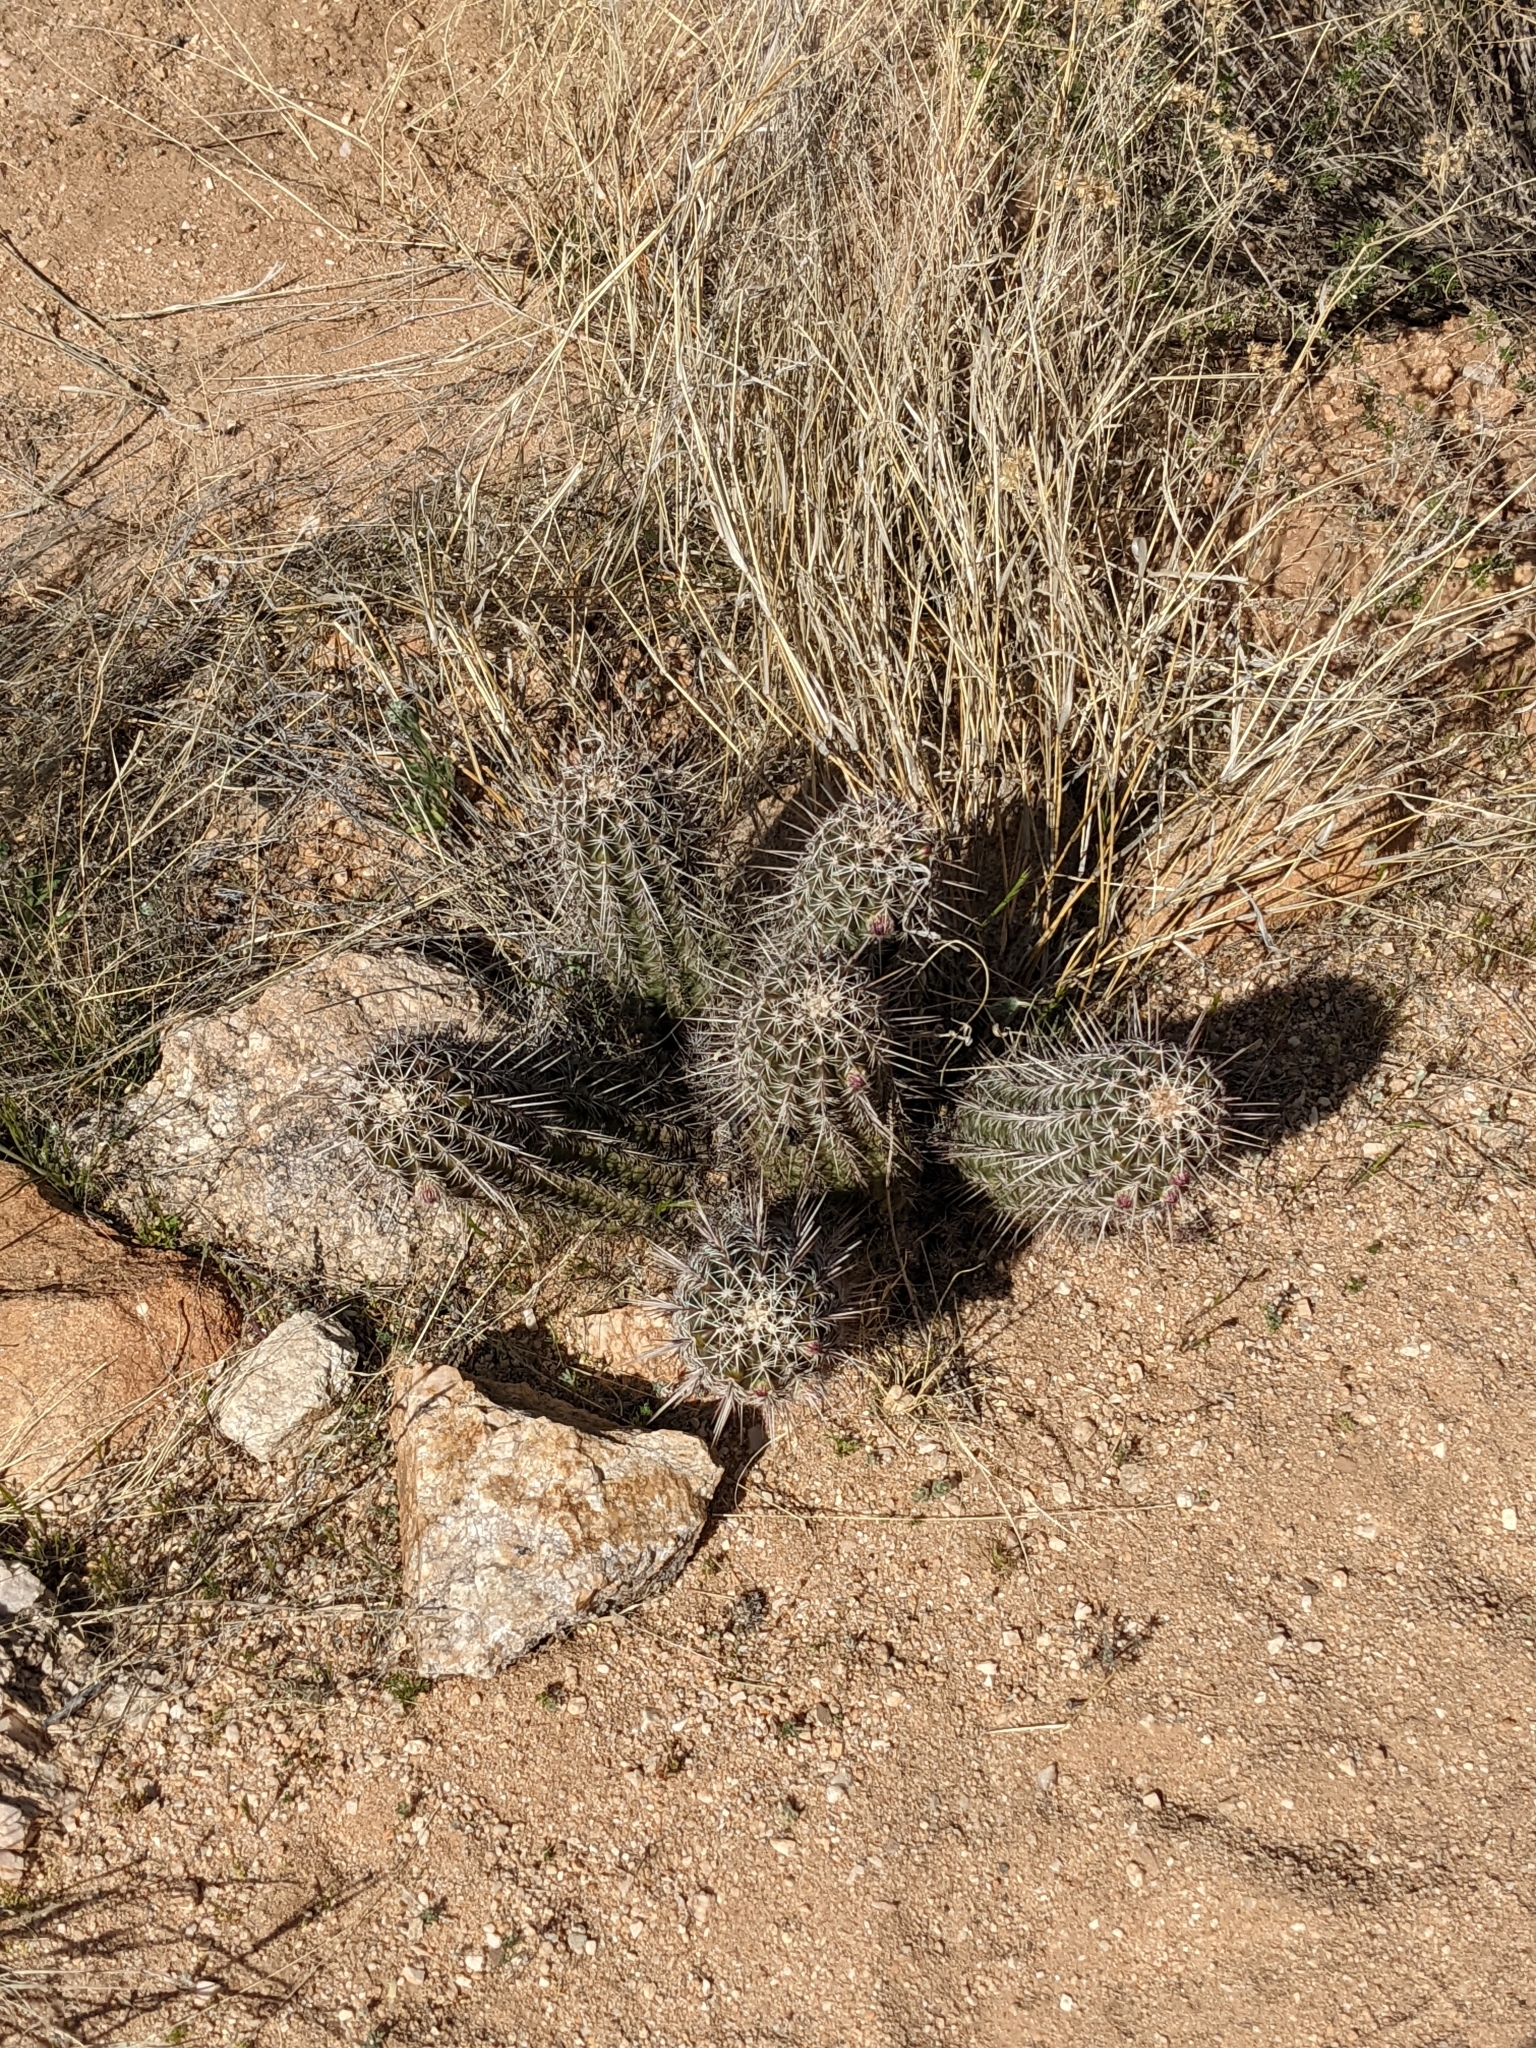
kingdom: Plantae
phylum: Tracheophyta
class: Magnoliopsida
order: Caryophyllales
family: Cactaceae
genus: Echinocereus
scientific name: Echinocereus fasciculatus
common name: Bundle hedgehog
